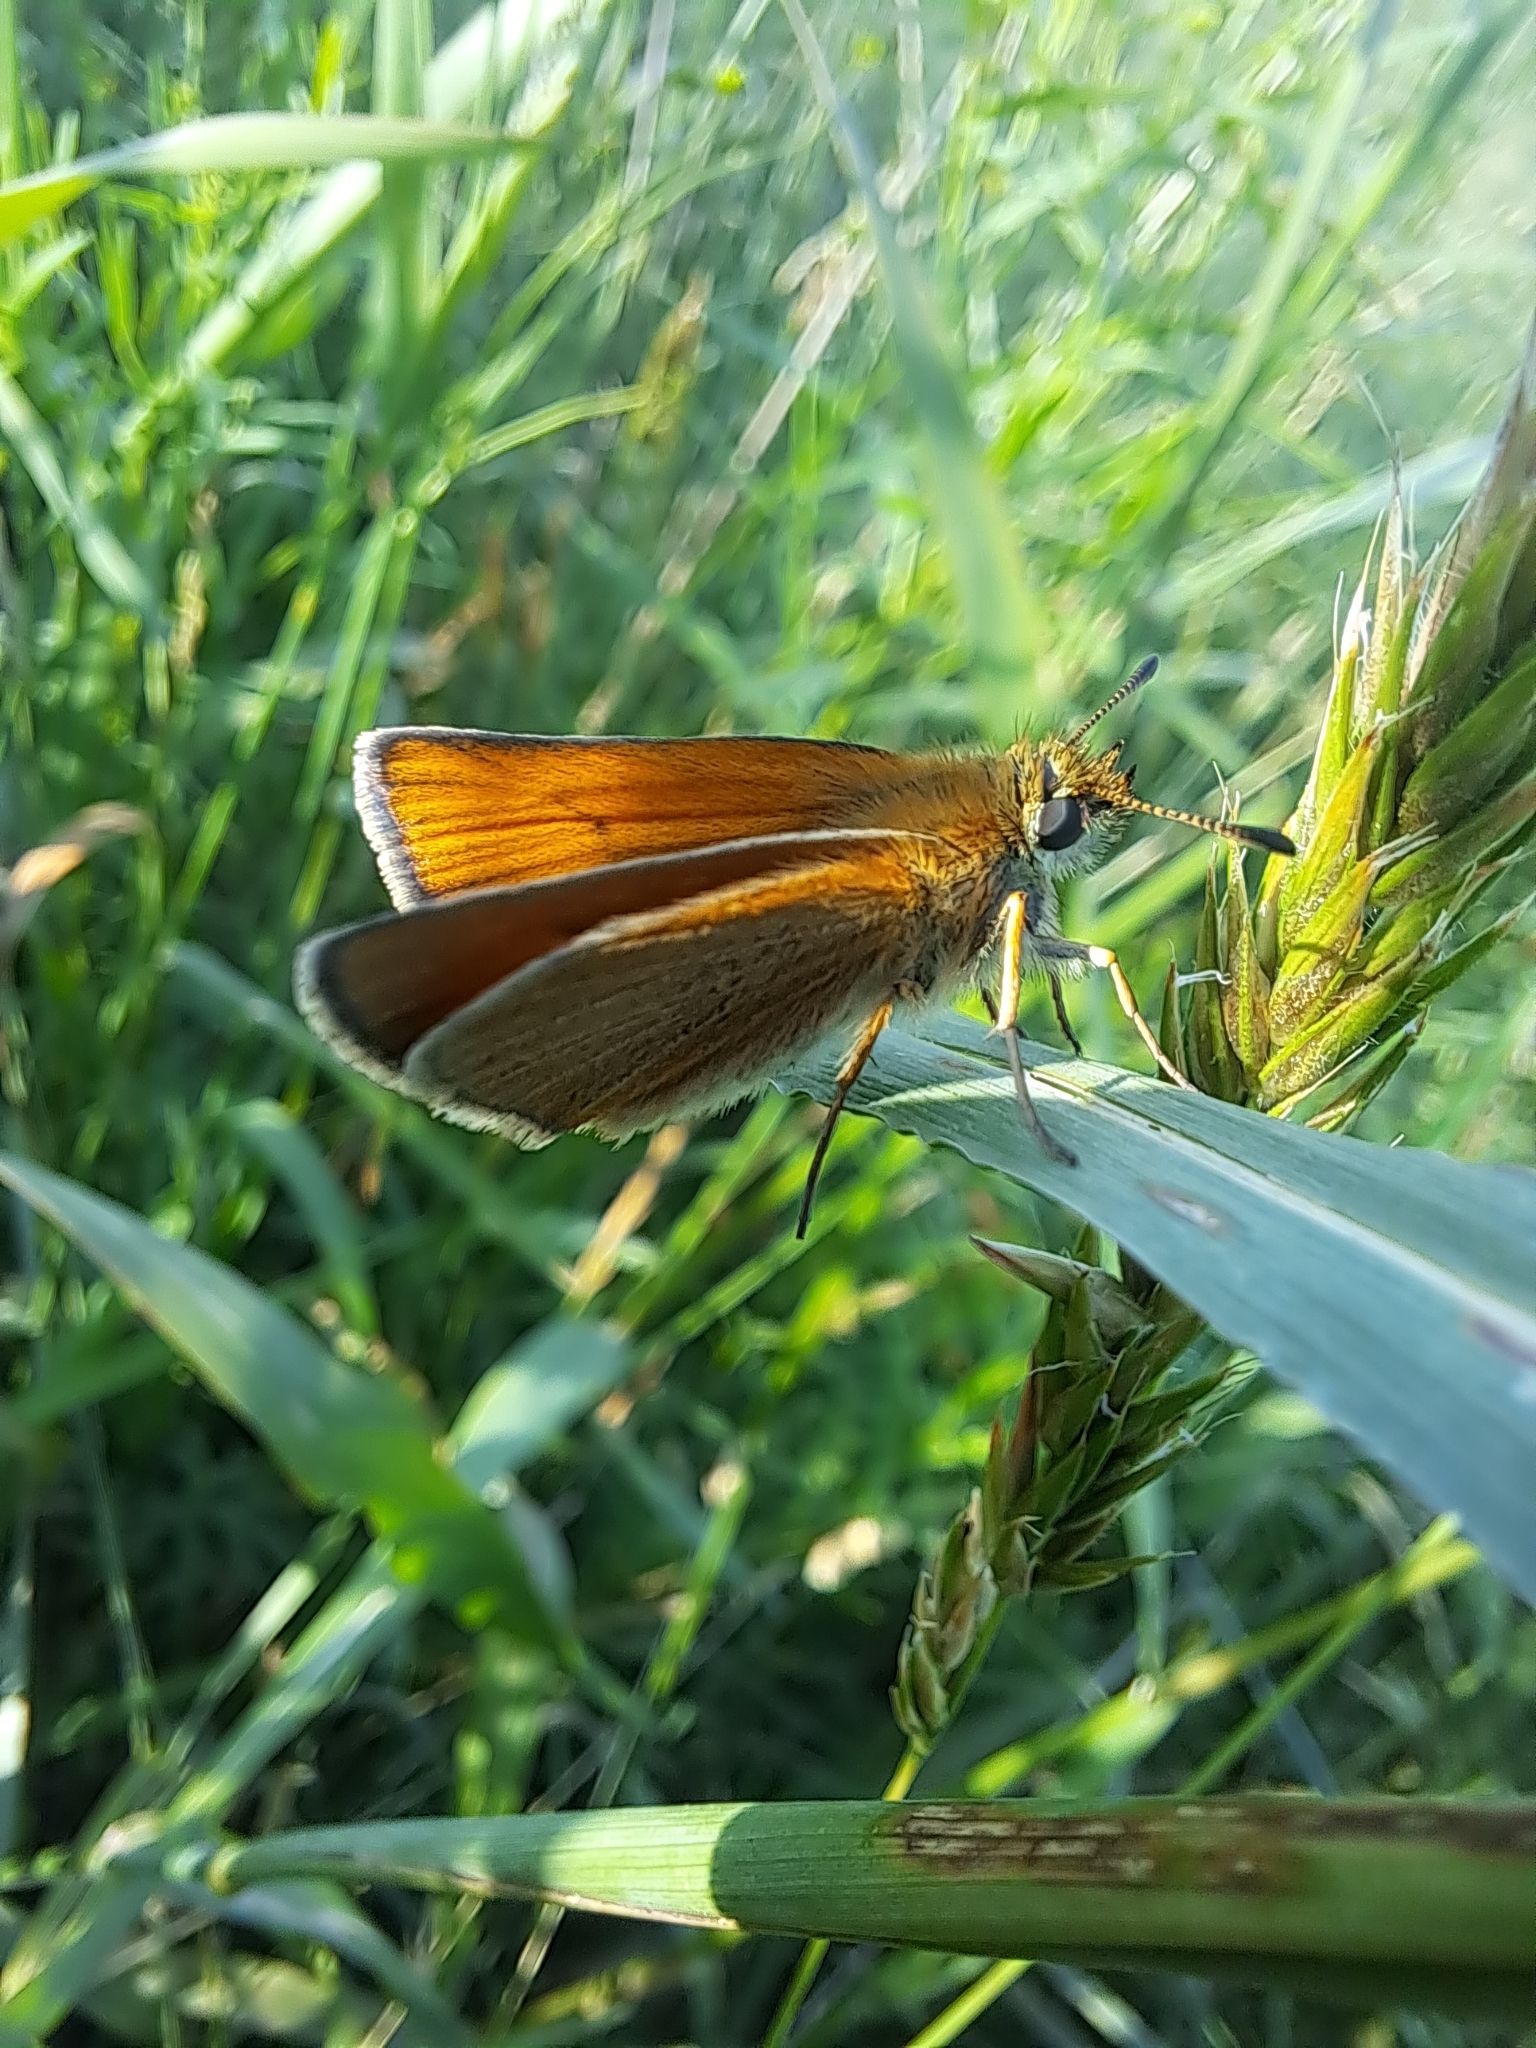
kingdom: Animalia
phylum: Arthropoda
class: Insecta
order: Lepidoptera
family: Hesperiidae
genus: Thymelicus
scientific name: Thymelicus lineola
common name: Essex skipper
